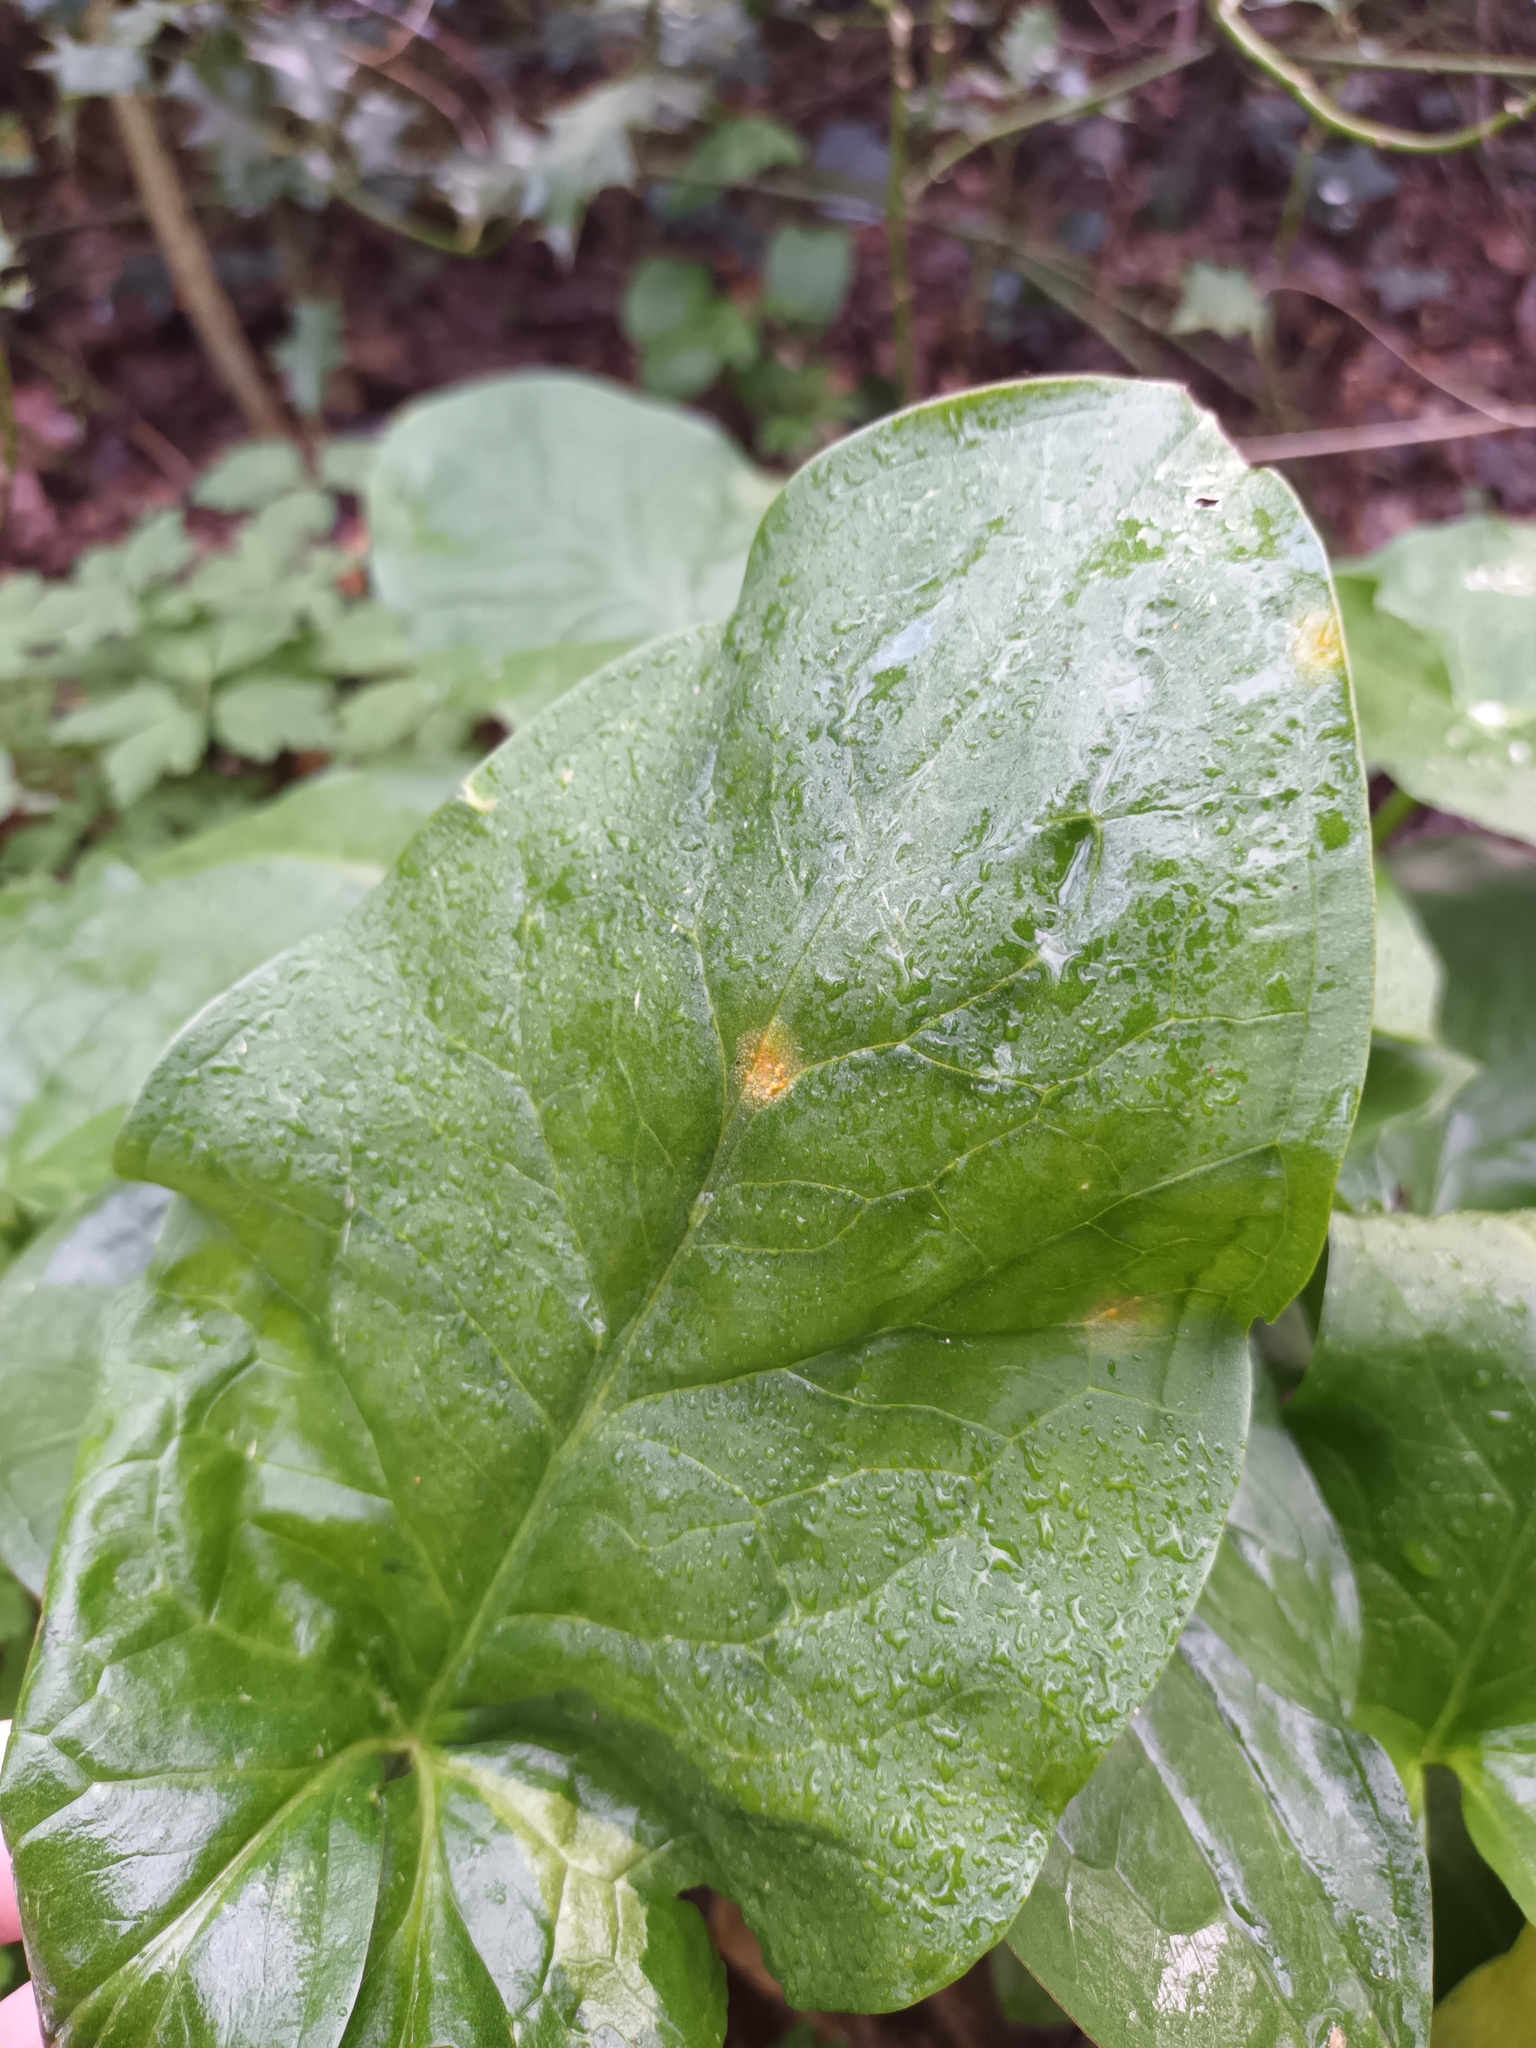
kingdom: Fungi
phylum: Basidiomycota
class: Pucciniomycetes
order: Pucciniales
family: Pucciniaceae
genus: Puccinia
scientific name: Puccinia sessilis
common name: Arum rust
